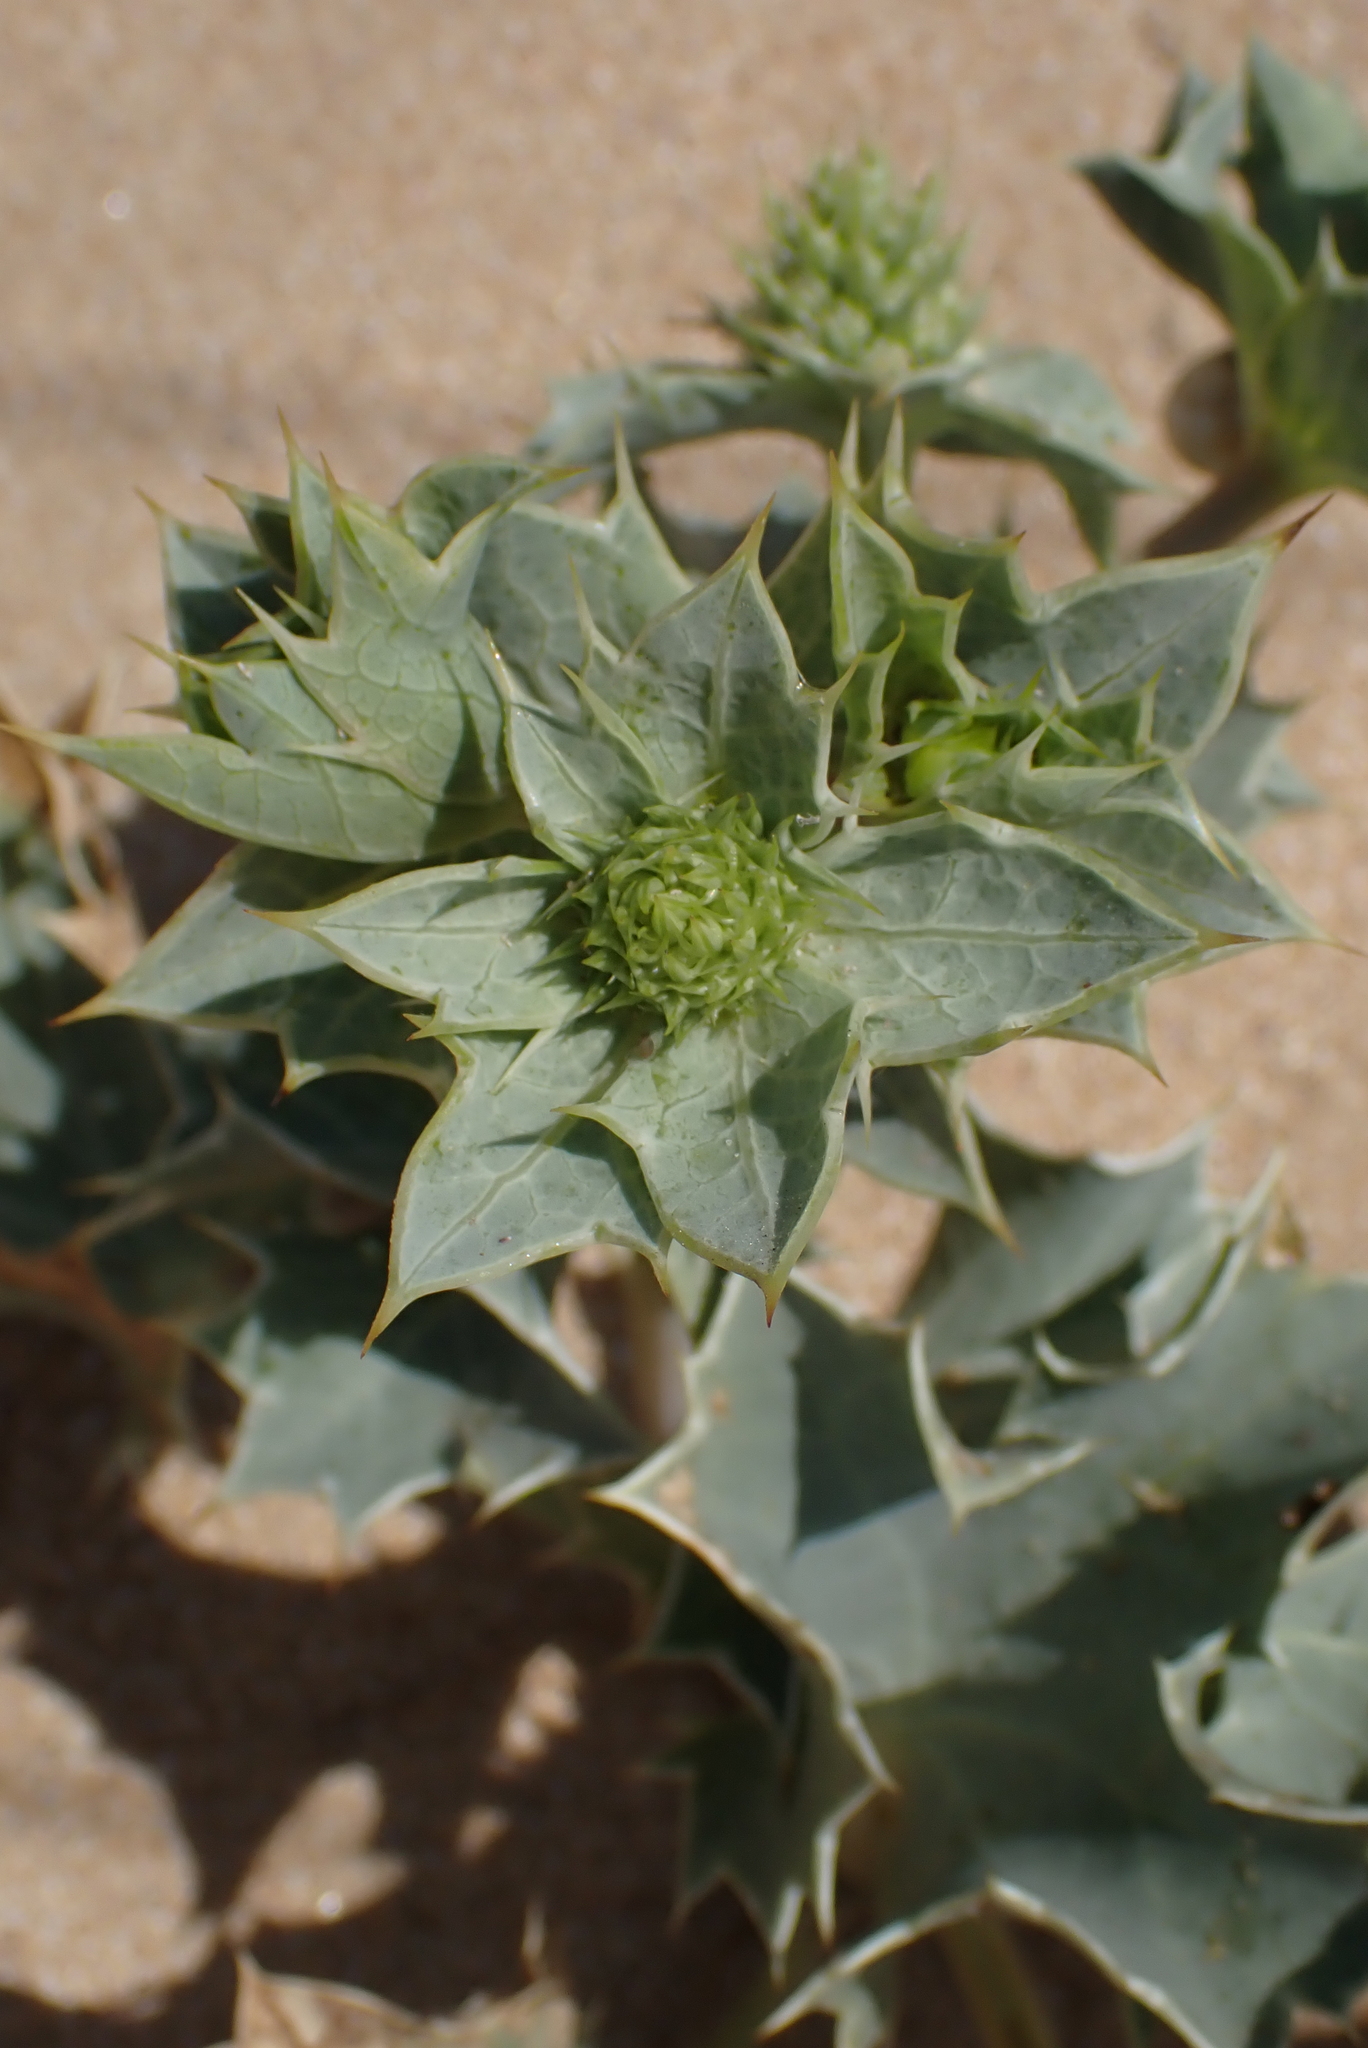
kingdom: Plantae
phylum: Tracheophyta
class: Magnoliopsida
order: Apiales
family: Apiaceae
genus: Eryngium
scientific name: Eryngium maritimum
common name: Sea-holly
